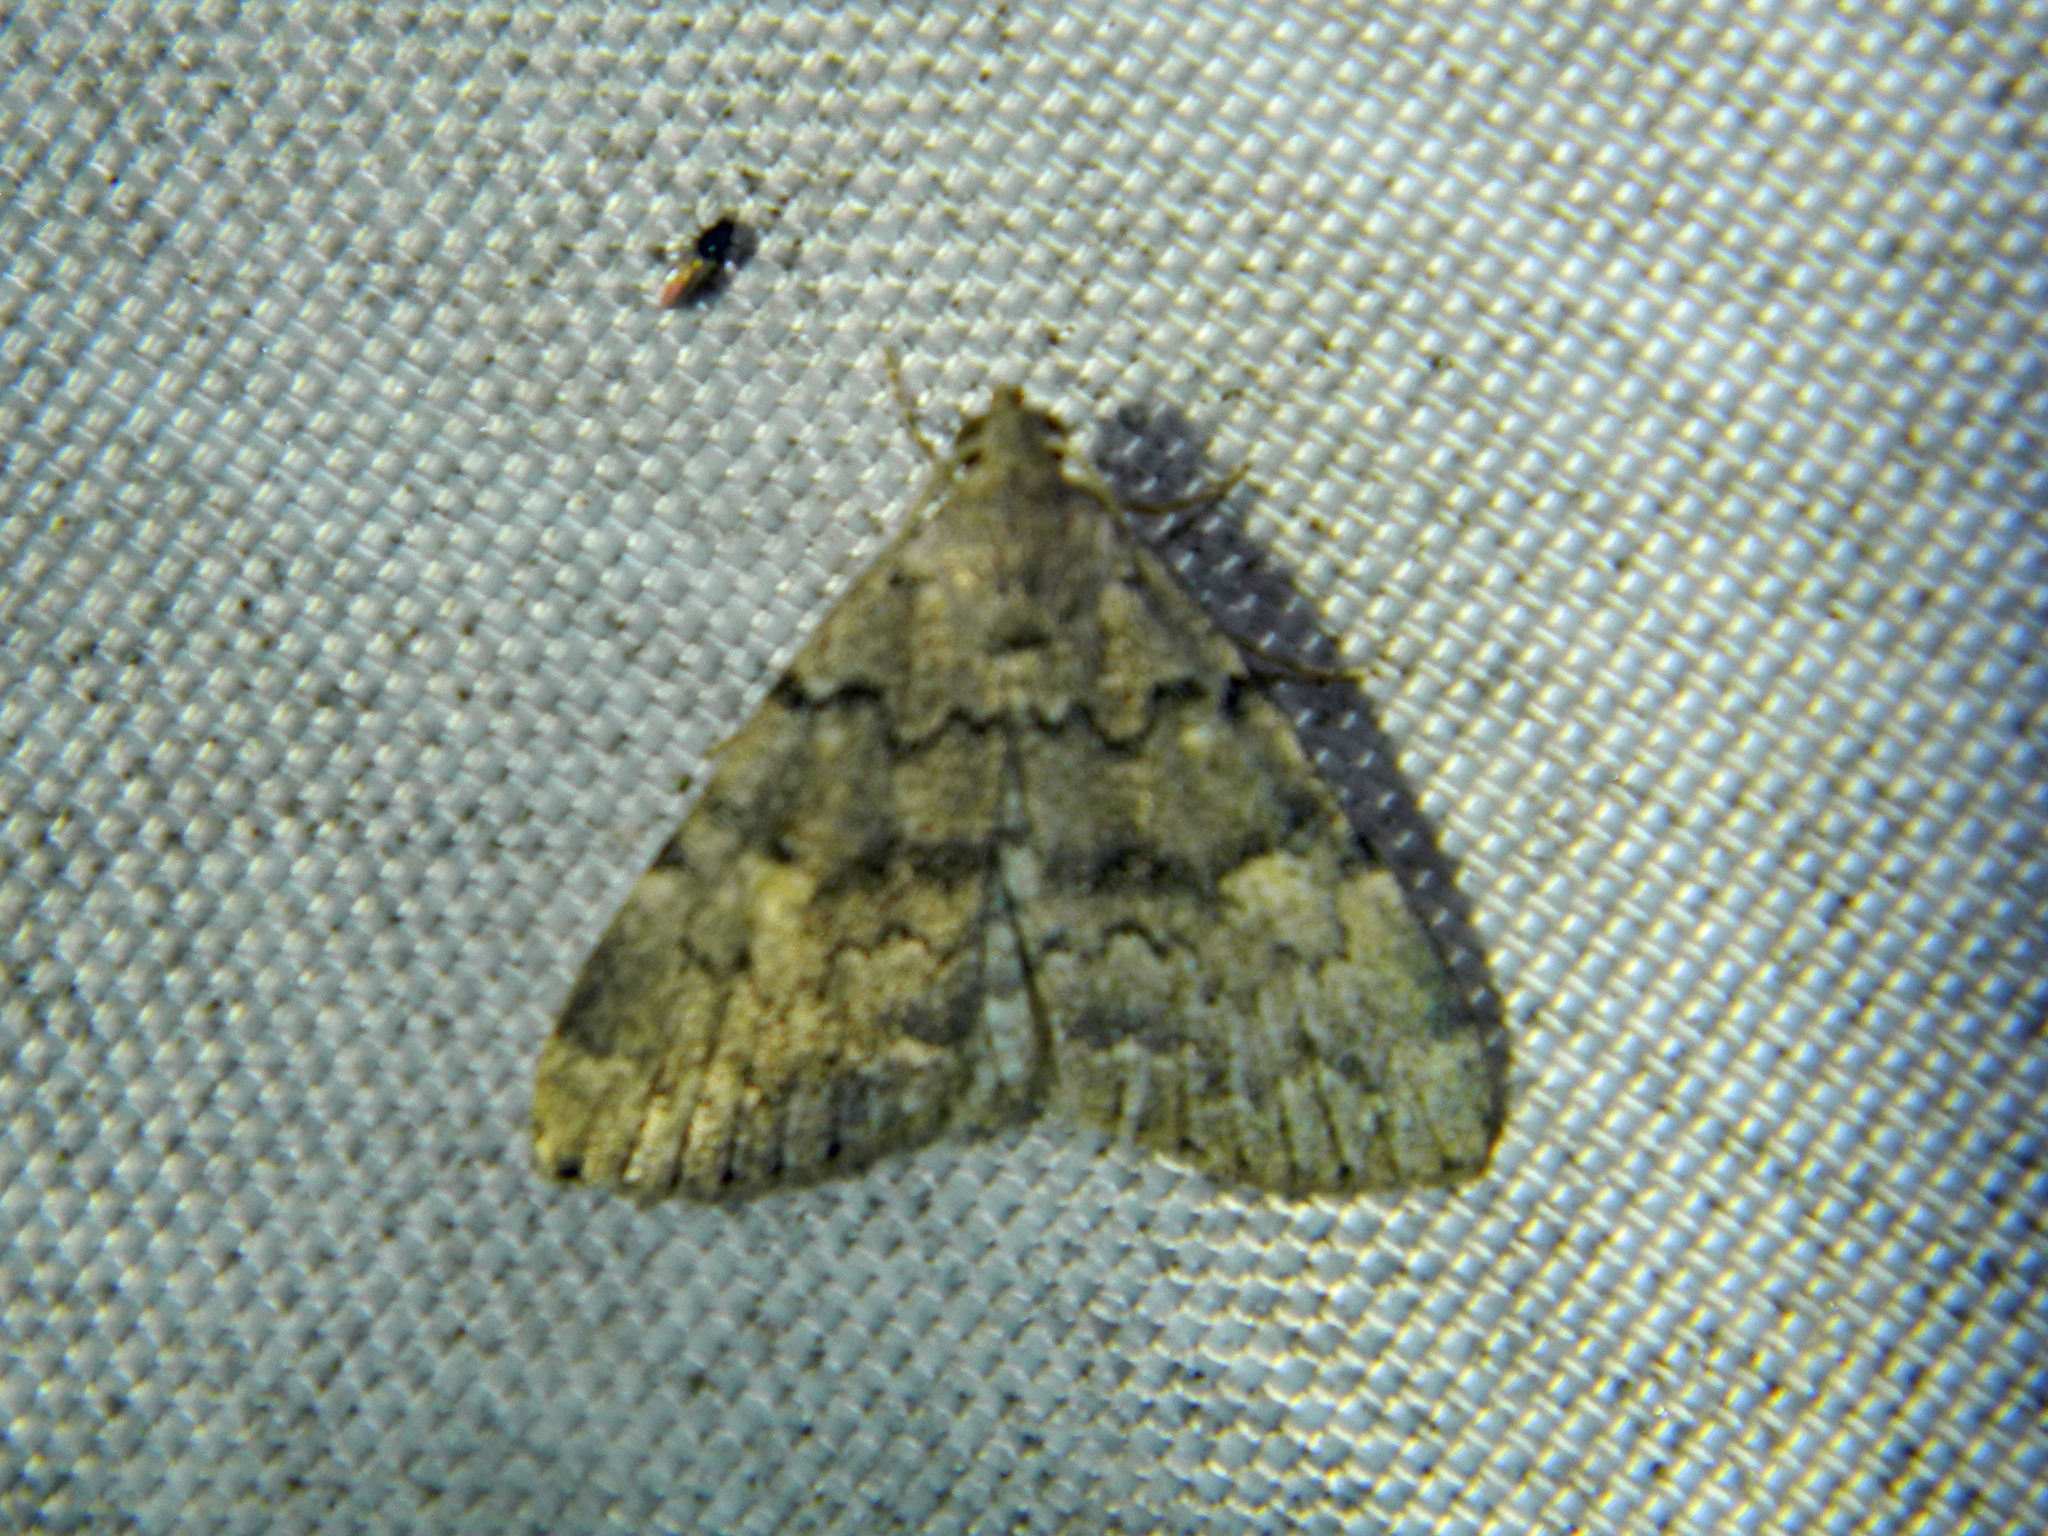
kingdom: Animalia
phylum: Arthropoda
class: Insecta
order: Lepidoptera
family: Erebidae
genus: Idia
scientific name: Idia aemula
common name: Common idia moth
